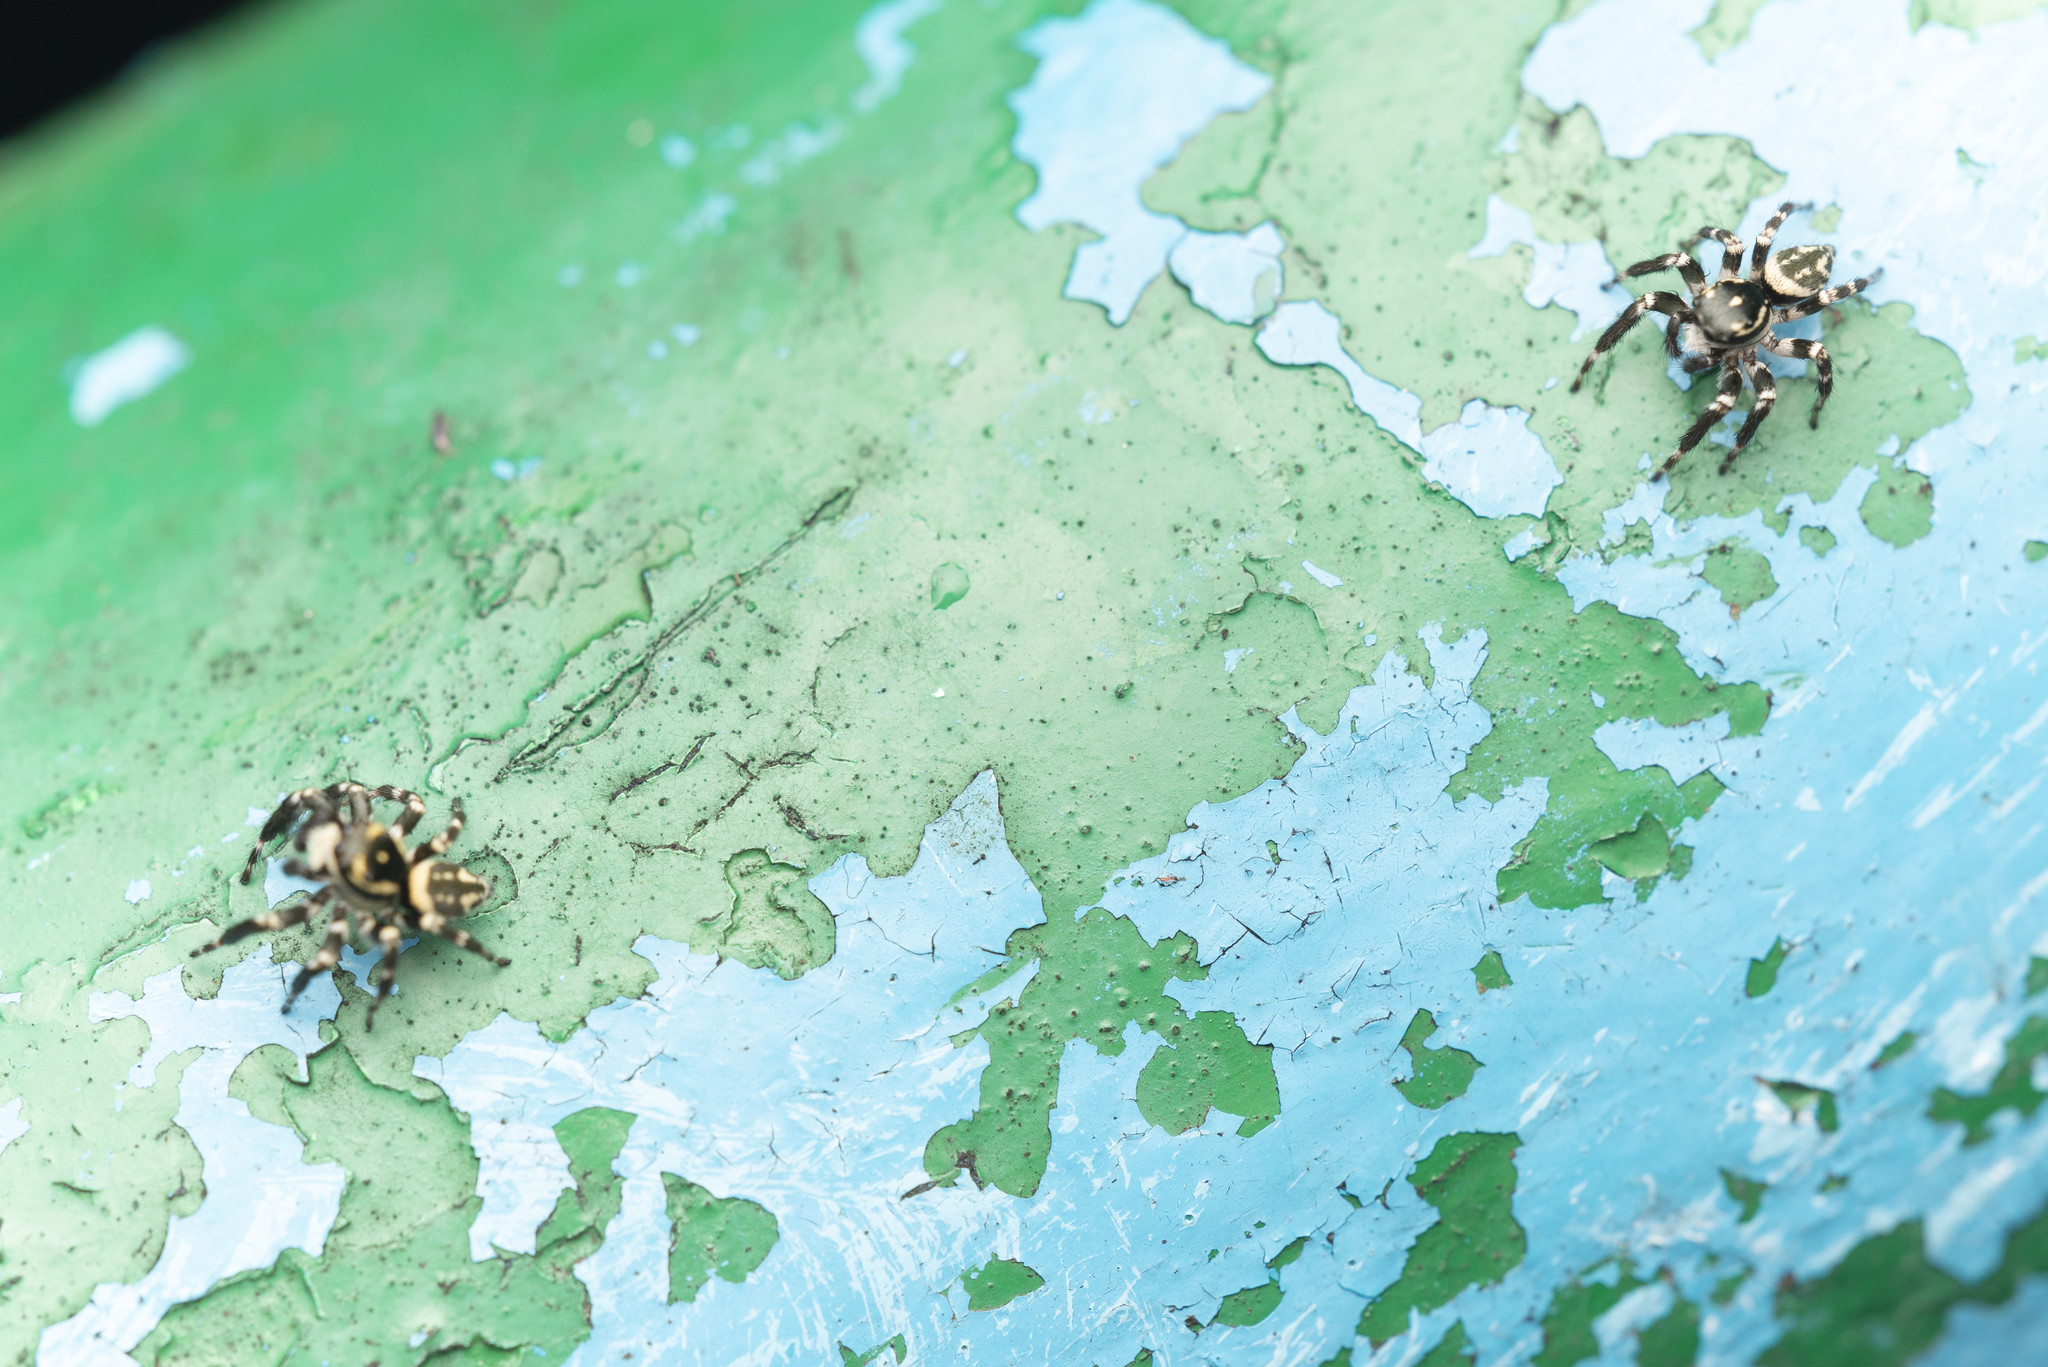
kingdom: Animalia
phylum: Arthropoda
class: Arachnida
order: Araneae
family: Salticidae
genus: Carrhotus
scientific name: Carrhotus sannio
